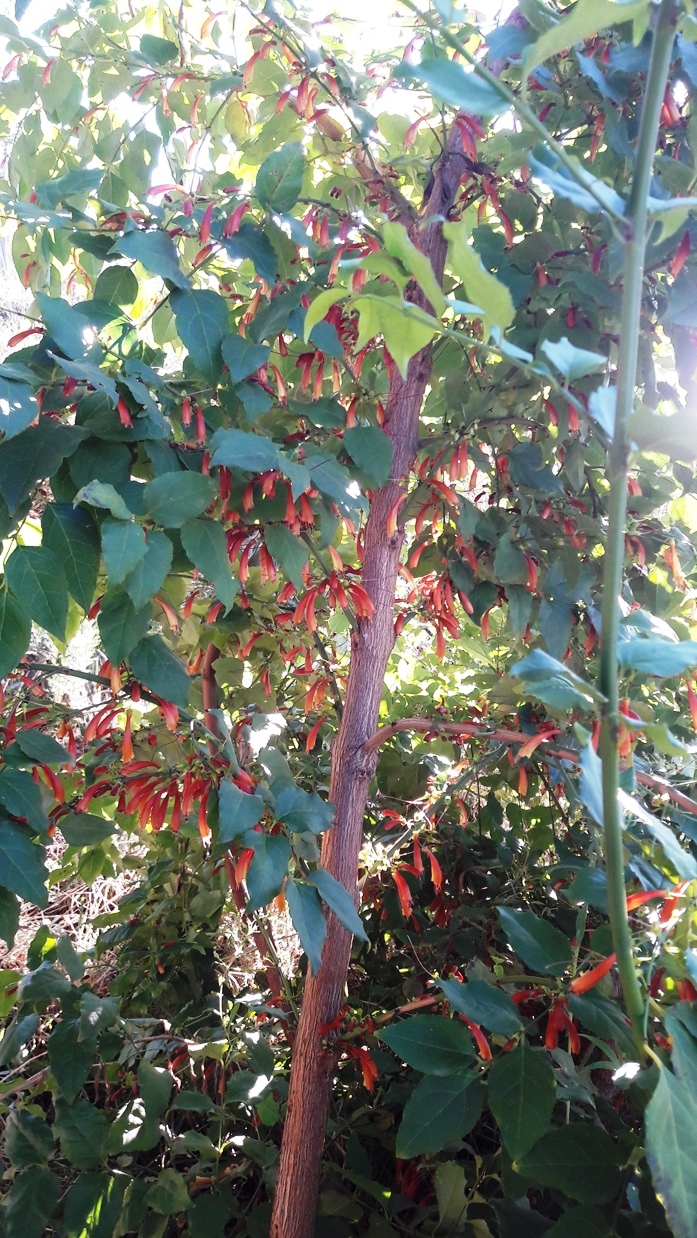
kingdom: Plantae
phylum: Tracheophyta
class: Magnoliopsida
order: Lamiales
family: Stilbaceae
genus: Halleria
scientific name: Halleria lucida
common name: Tree fuschia
